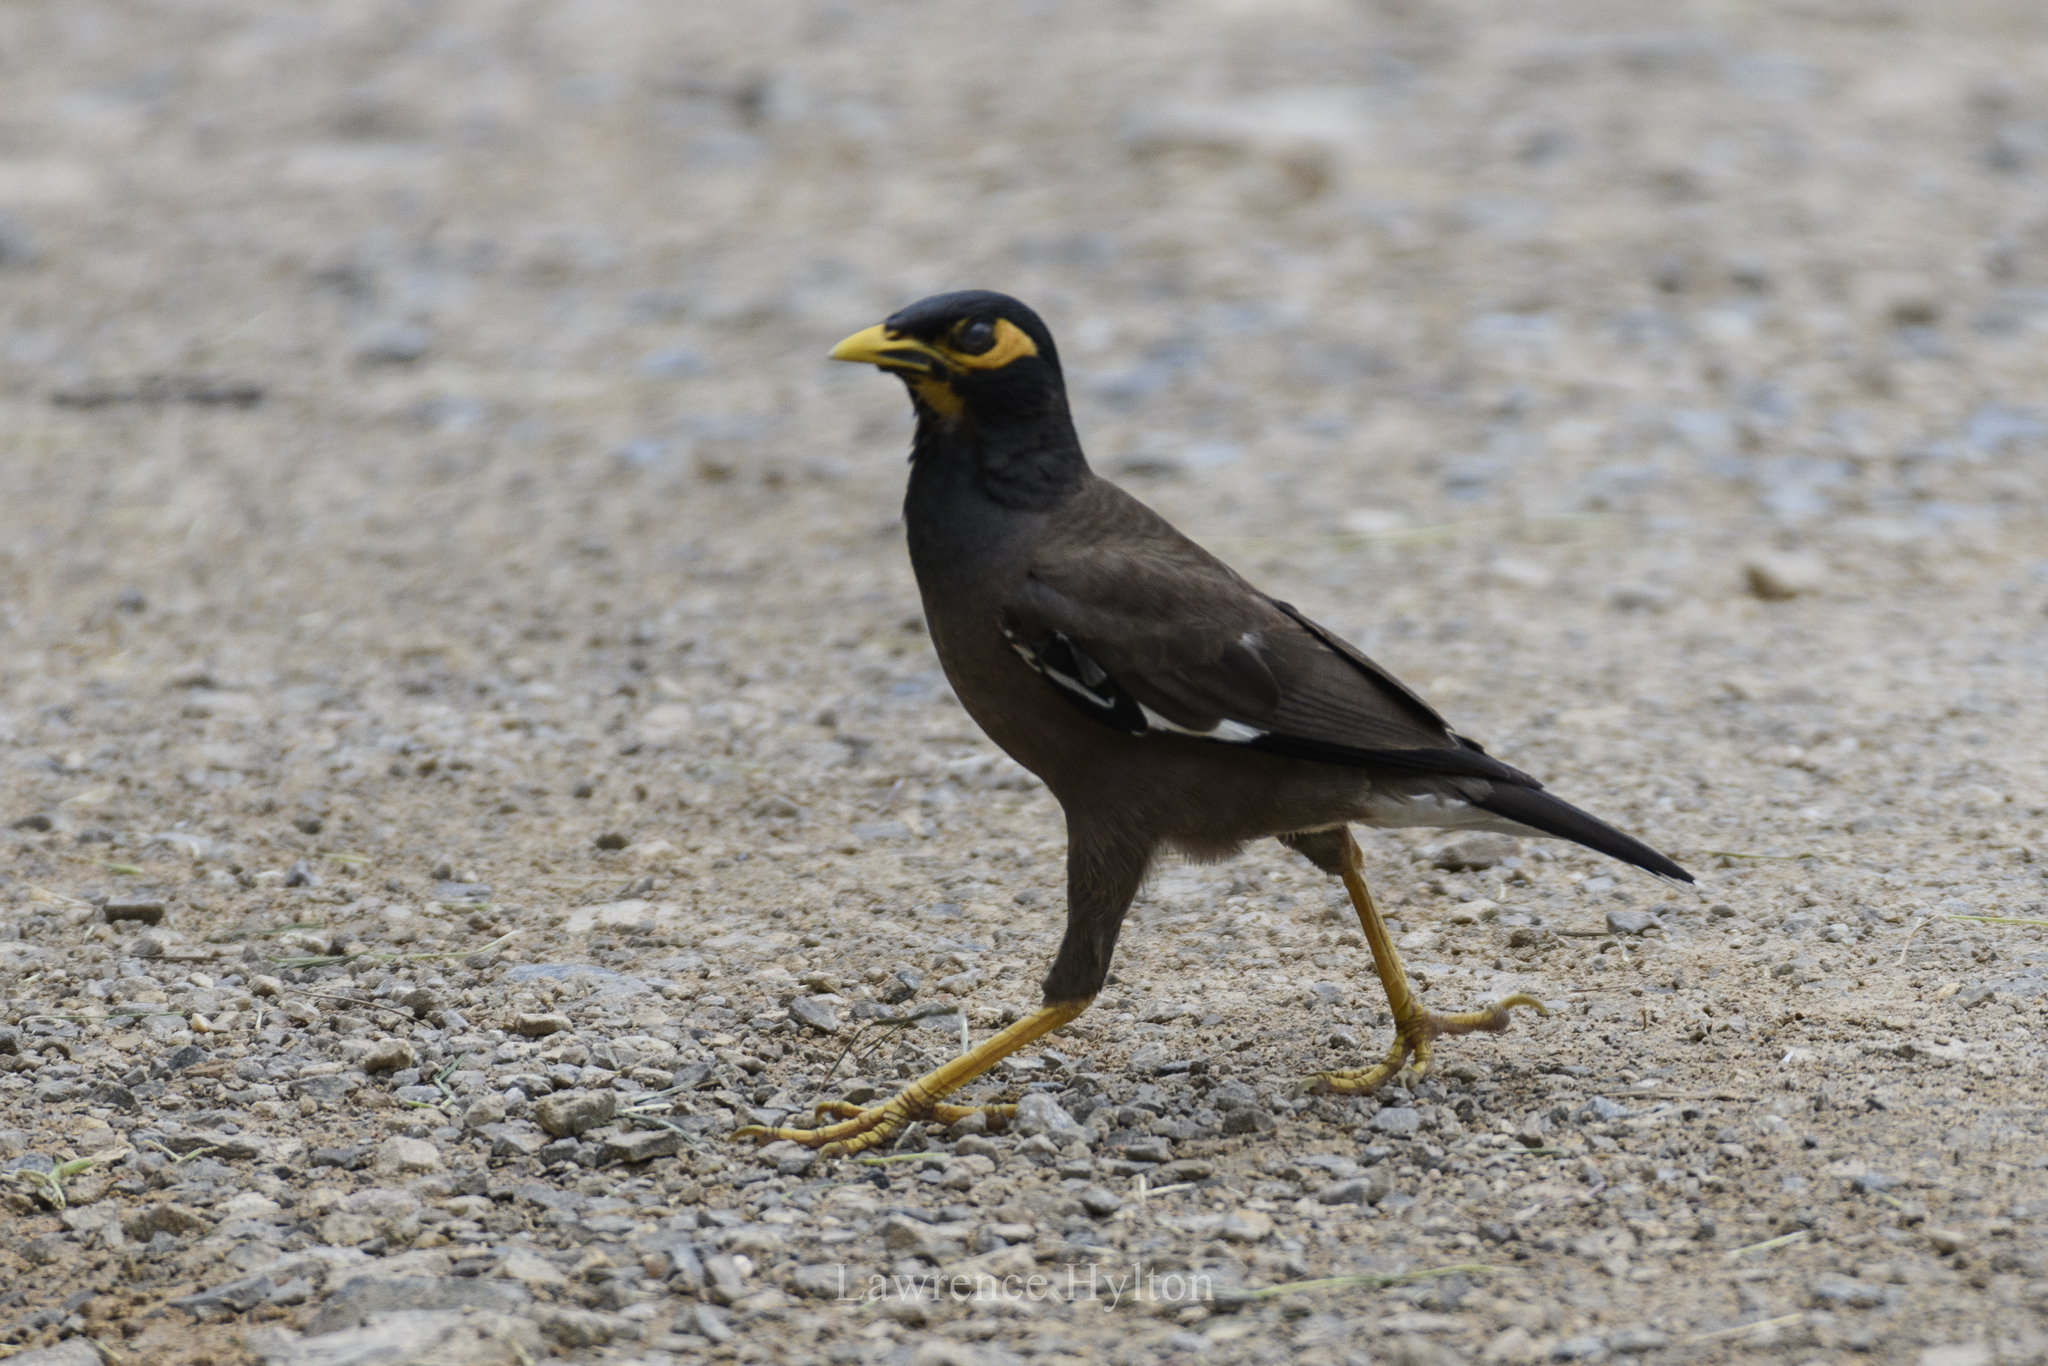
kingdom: Animalia
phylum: Chordata
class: Aves
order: Passeriformes
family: Sturnidae
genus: Acridotheres
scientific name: Acridotheres tristis
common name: Common myna
